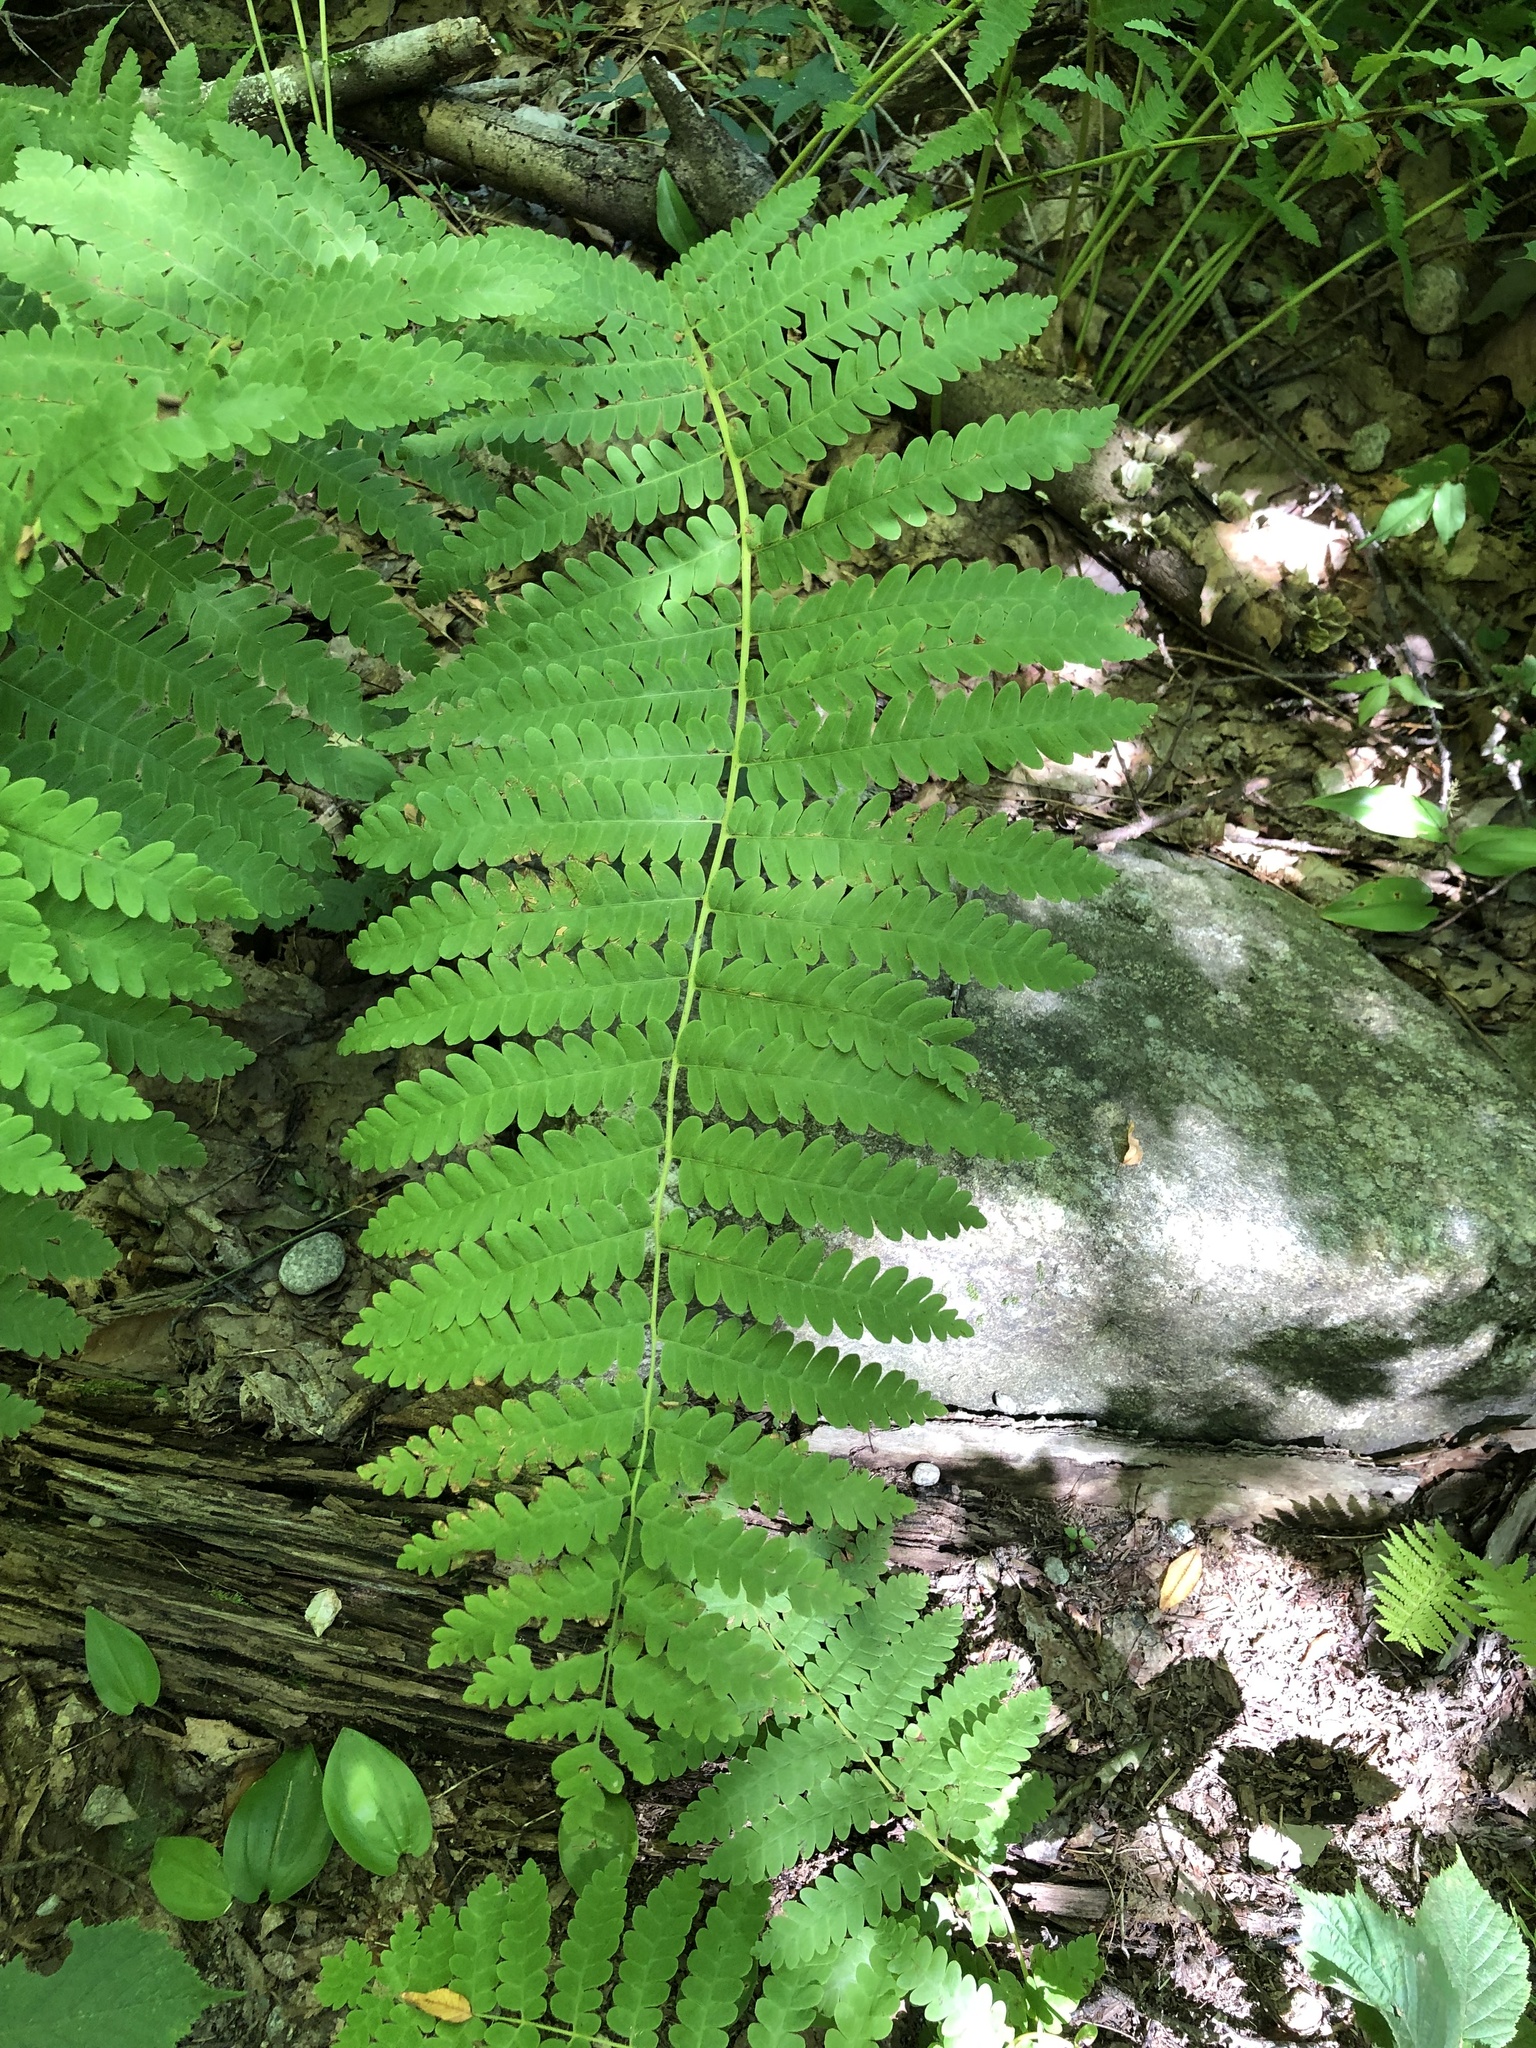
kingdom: Plantae
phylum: Tracheophyta
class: Polypodiopsida
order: Osmundales
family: Osmundaceae
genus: Claytosmunda
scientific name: Claytosmunda claytoniana
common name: Clayton's fern
